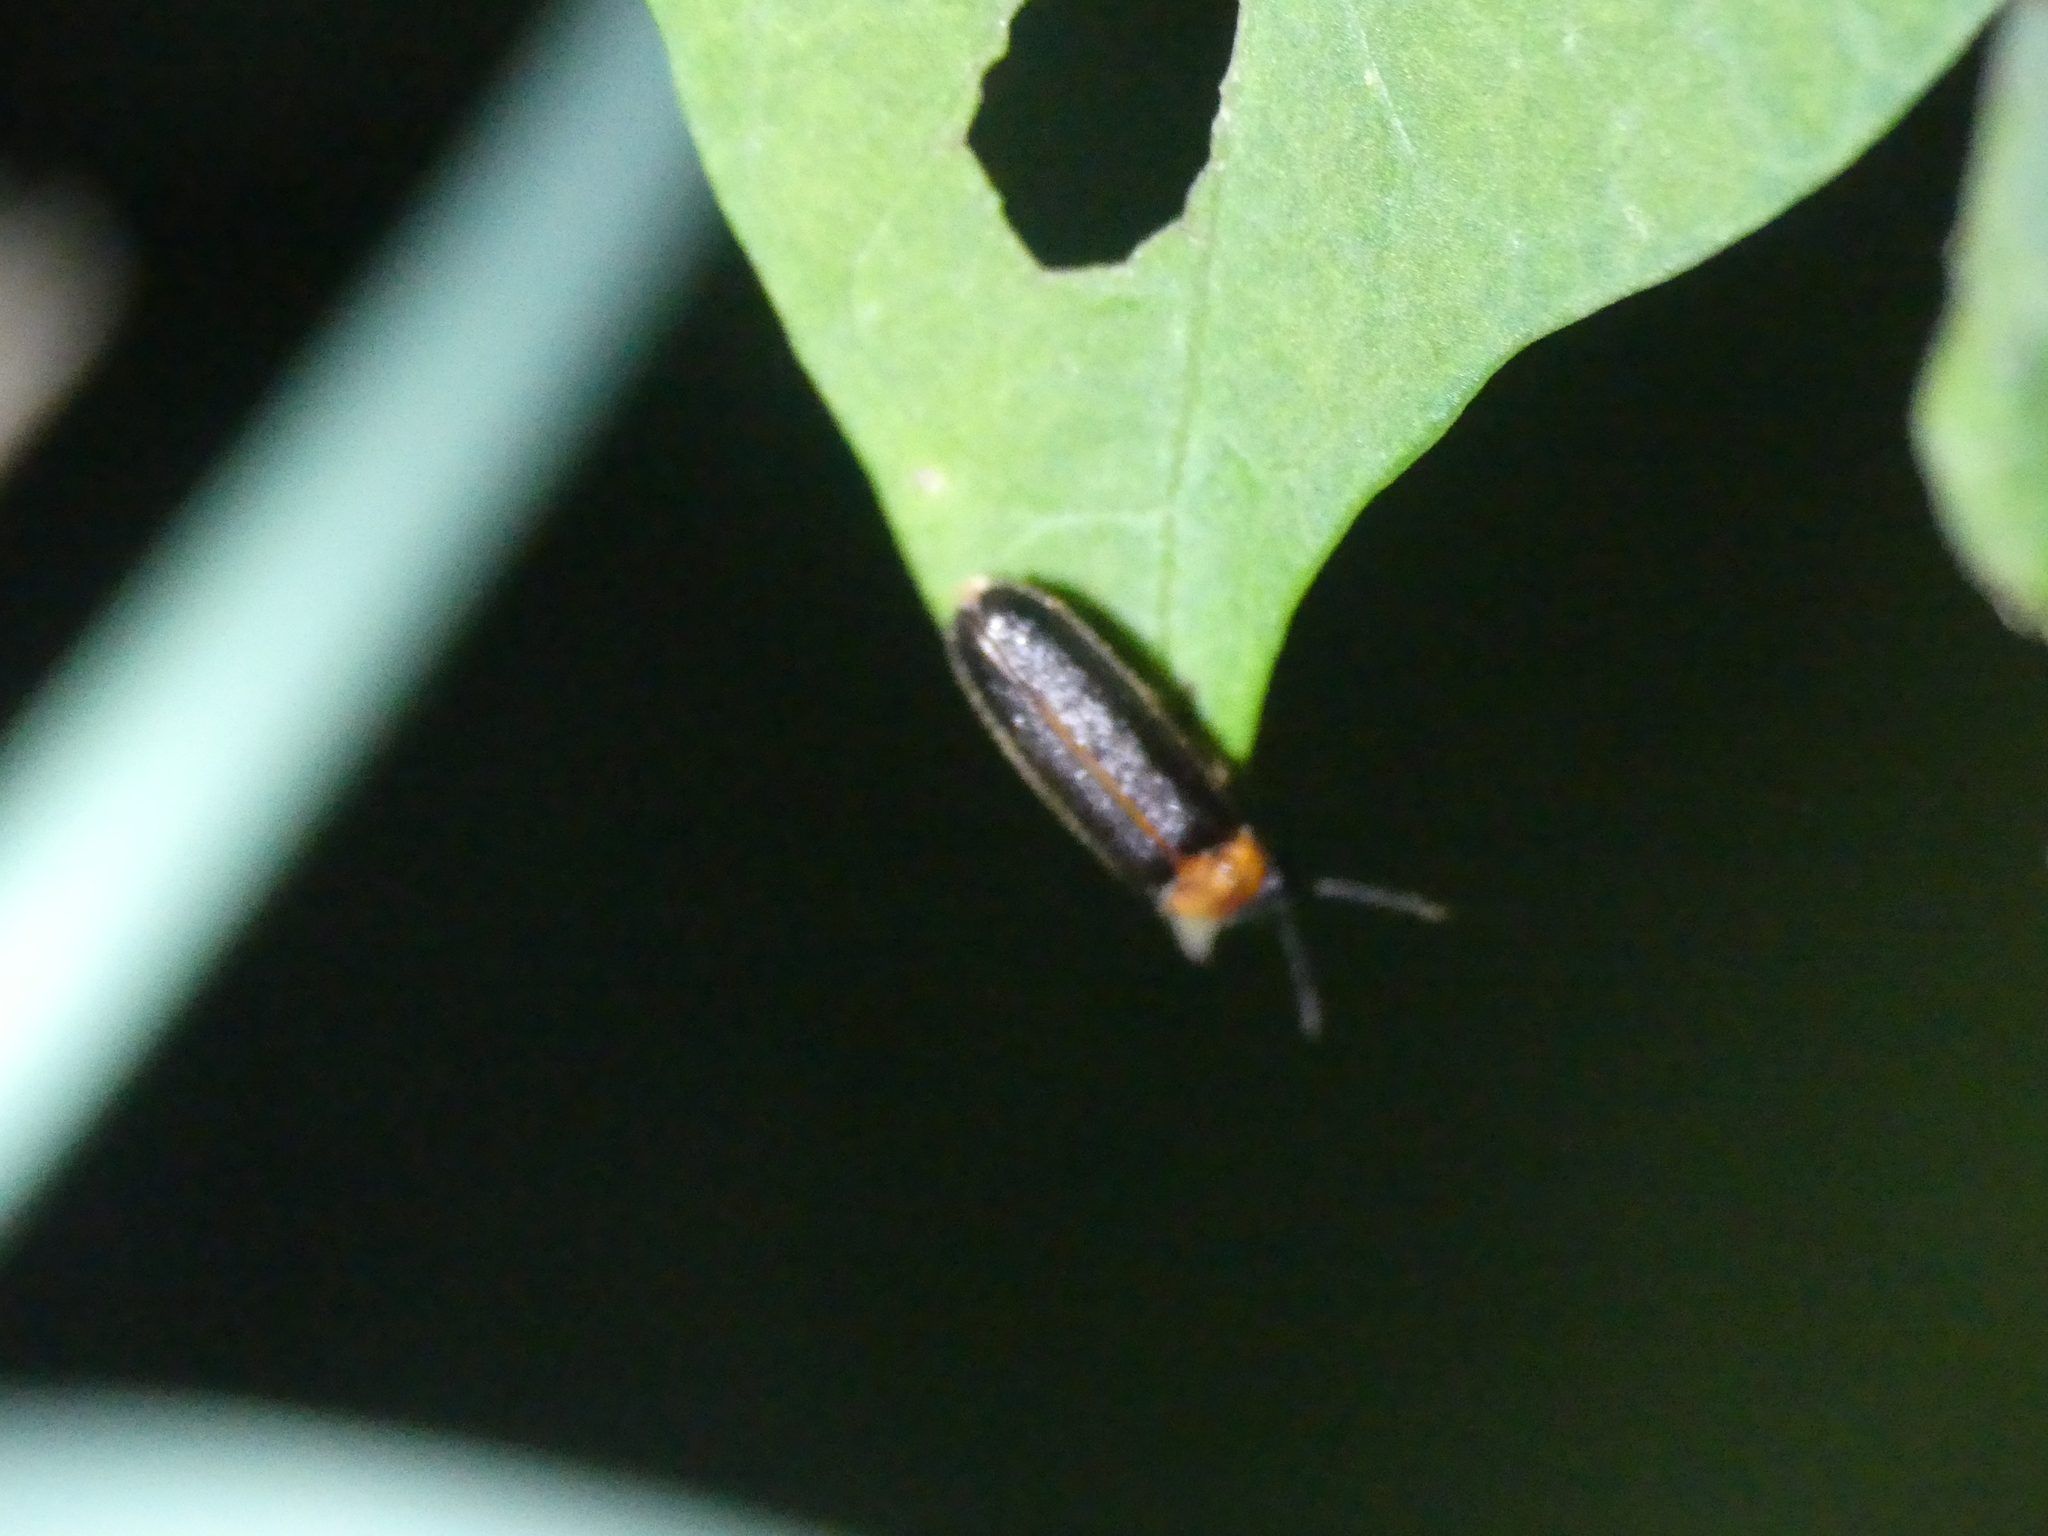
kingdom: Animalia
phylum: Arthropoda
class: Insecta
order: Coleoptera
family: Lampyridae
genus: Luciola
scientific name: Luciola italica
